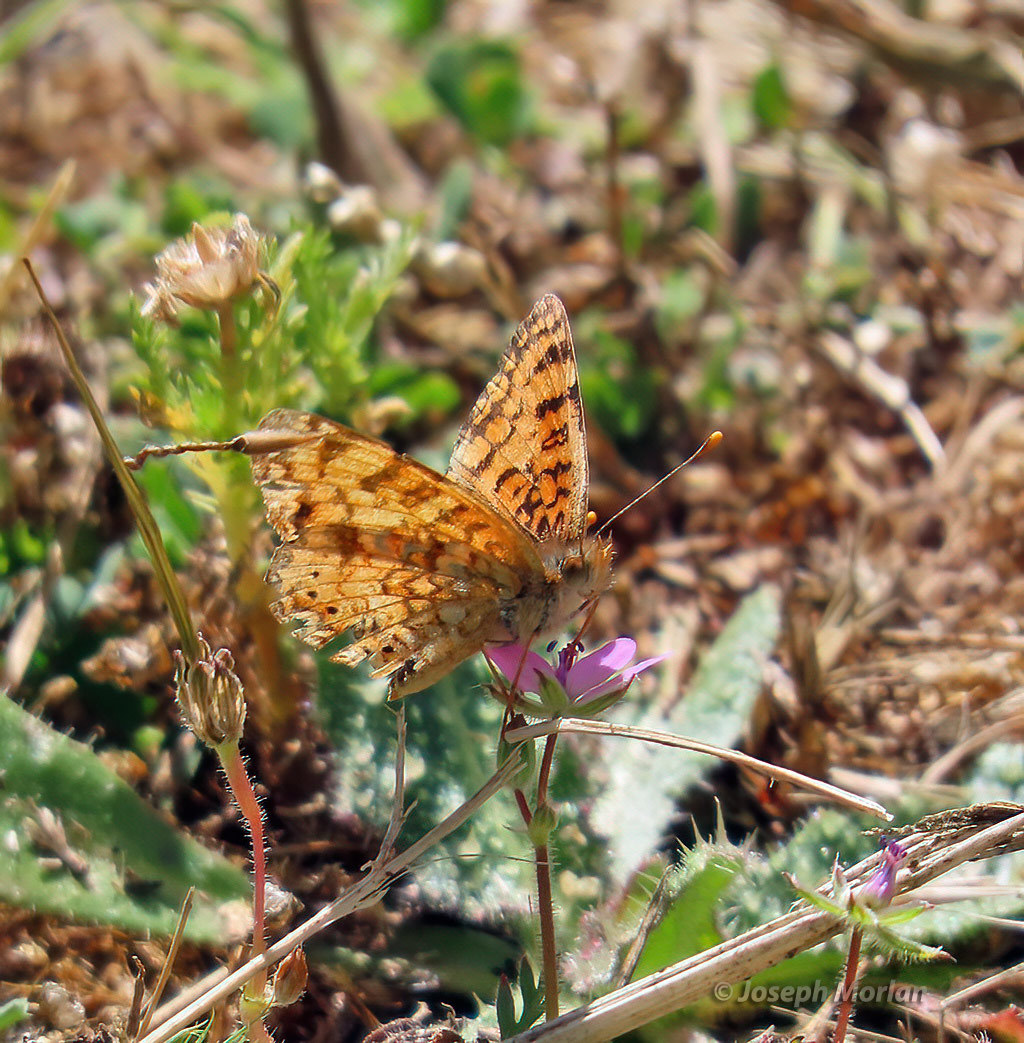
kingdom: Animalia
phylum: Arthropoda
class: Insecta
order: Lepidoptera
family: Nymphalidae
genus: Eresia
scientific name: Eresia aveyrona
